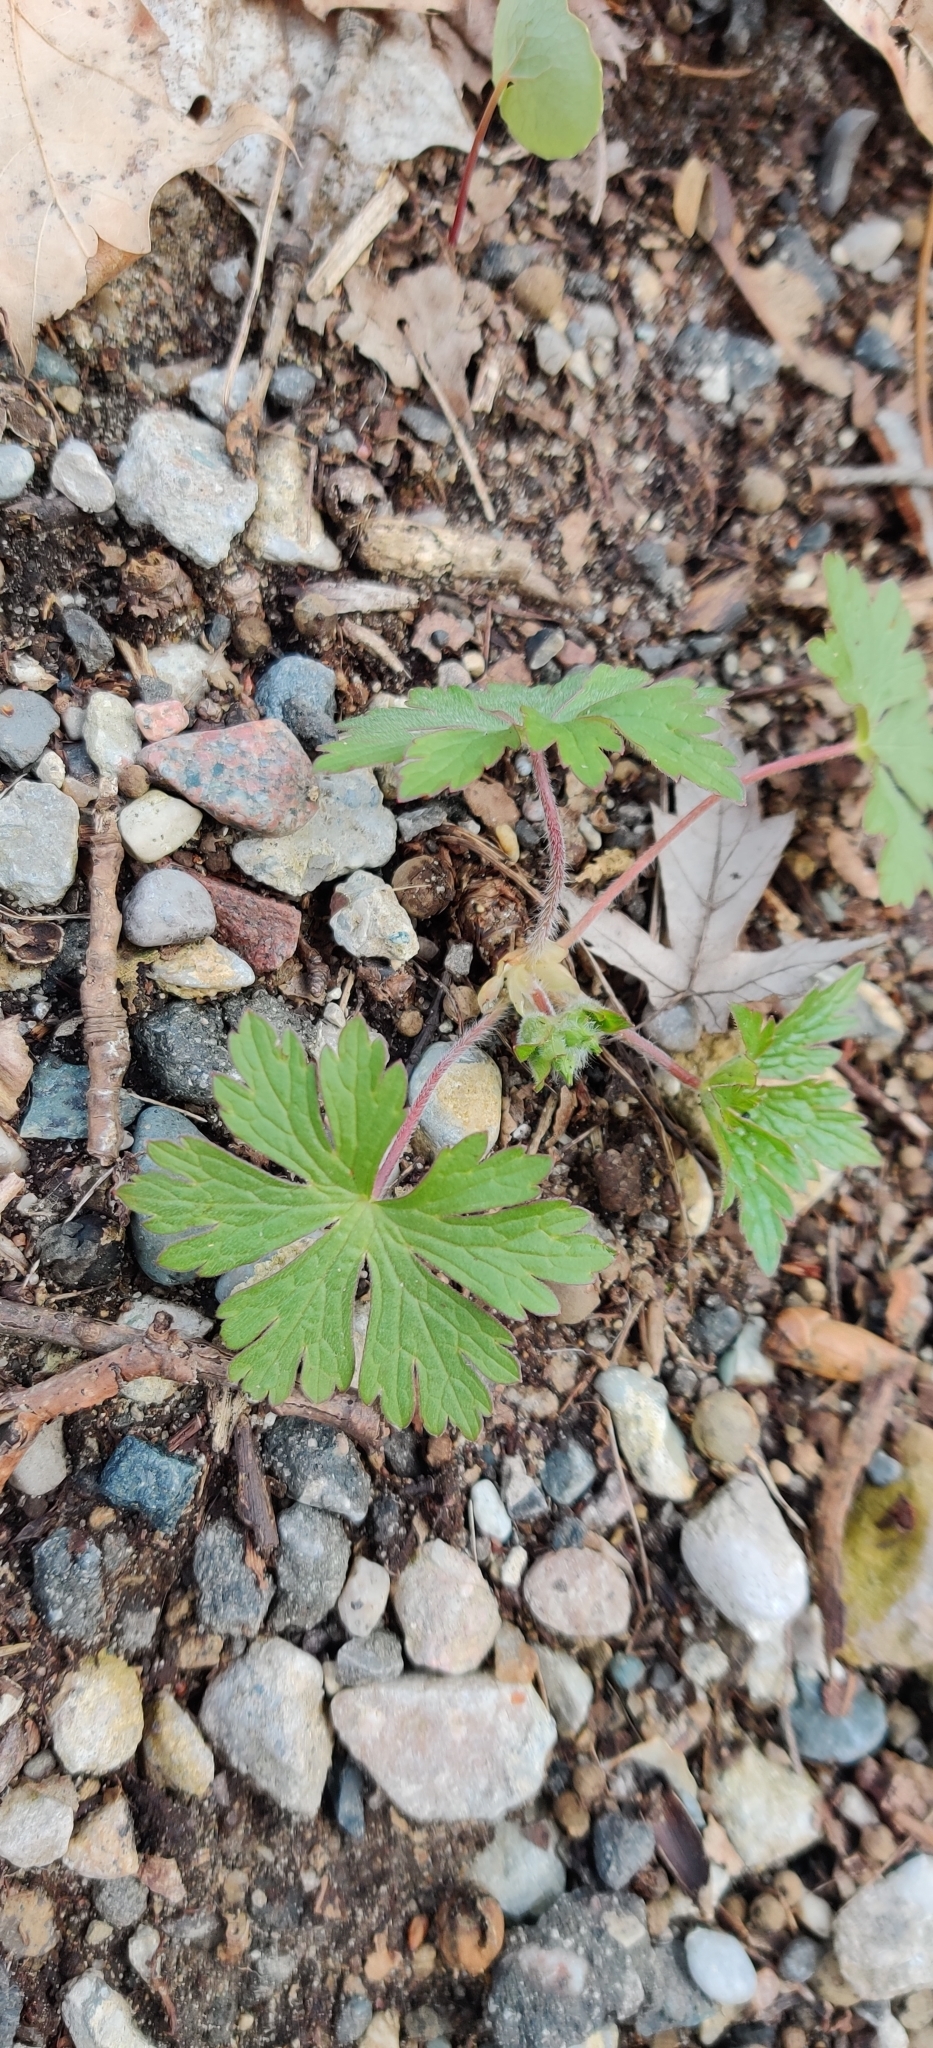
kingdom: Plantae
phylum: Tracheophyta
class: Magnoliopsida
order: Geraniales
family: Geraniaceae
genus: Geranium
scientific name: Geranium maculatum
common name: Spotted geranium
